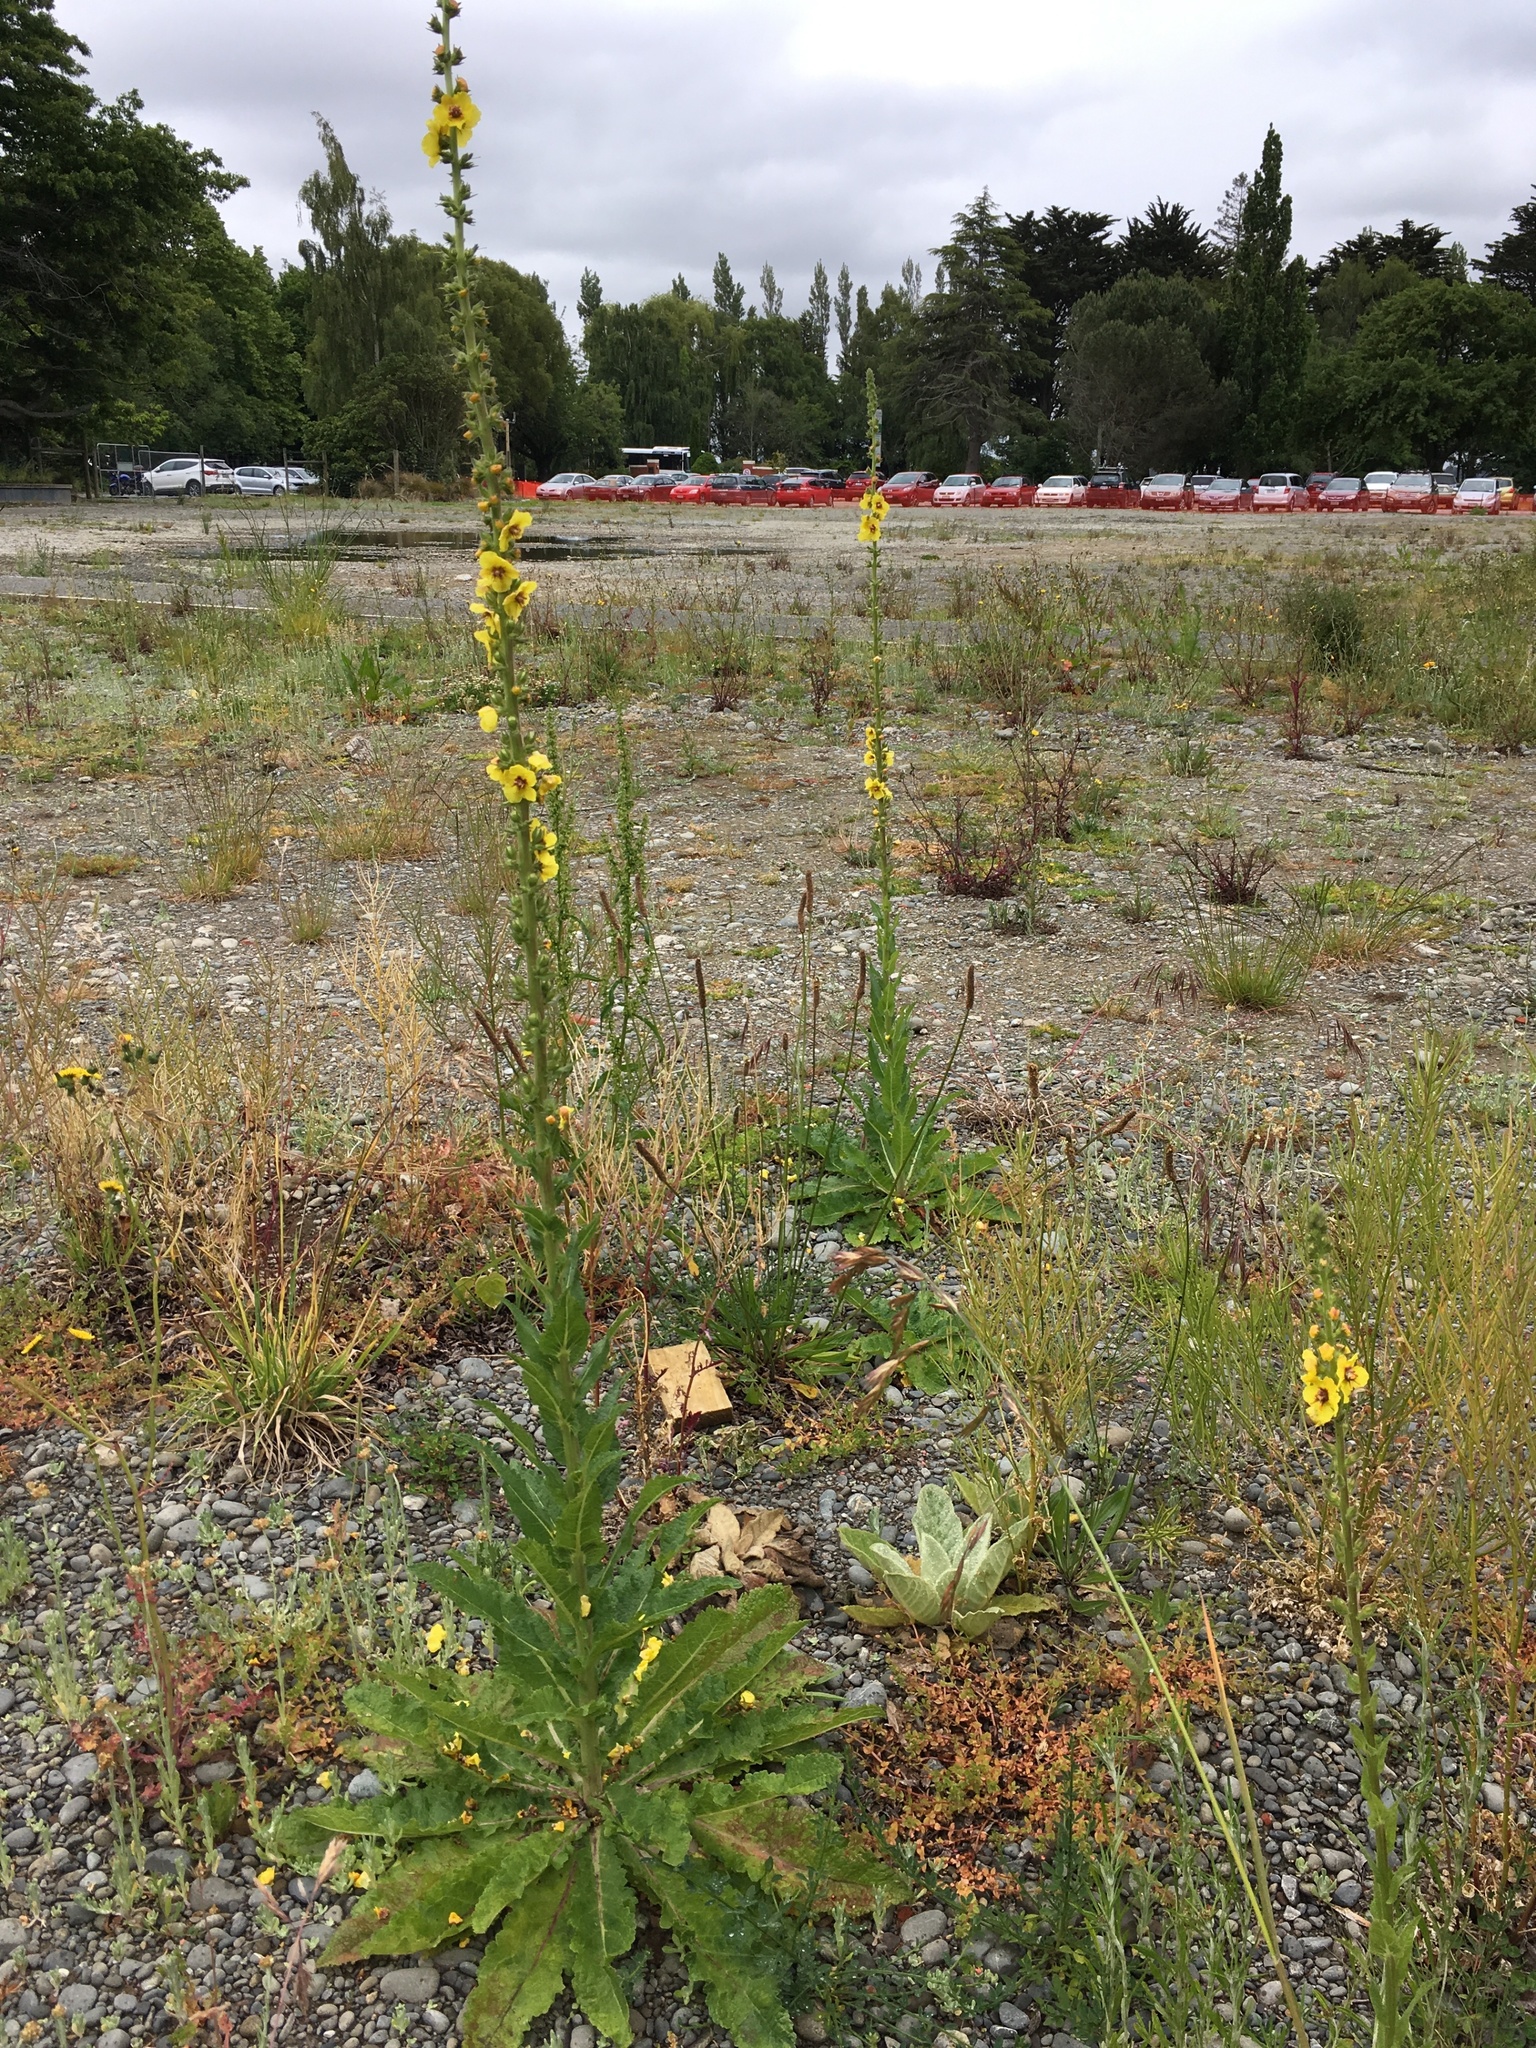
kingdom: Plantae
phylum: Tracheophyta
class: Magnoliopsida
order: Lamiales
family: Scrophulariaceae
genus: Verbascum
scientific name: Verbascum virgatum
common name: Twiggy mullein
